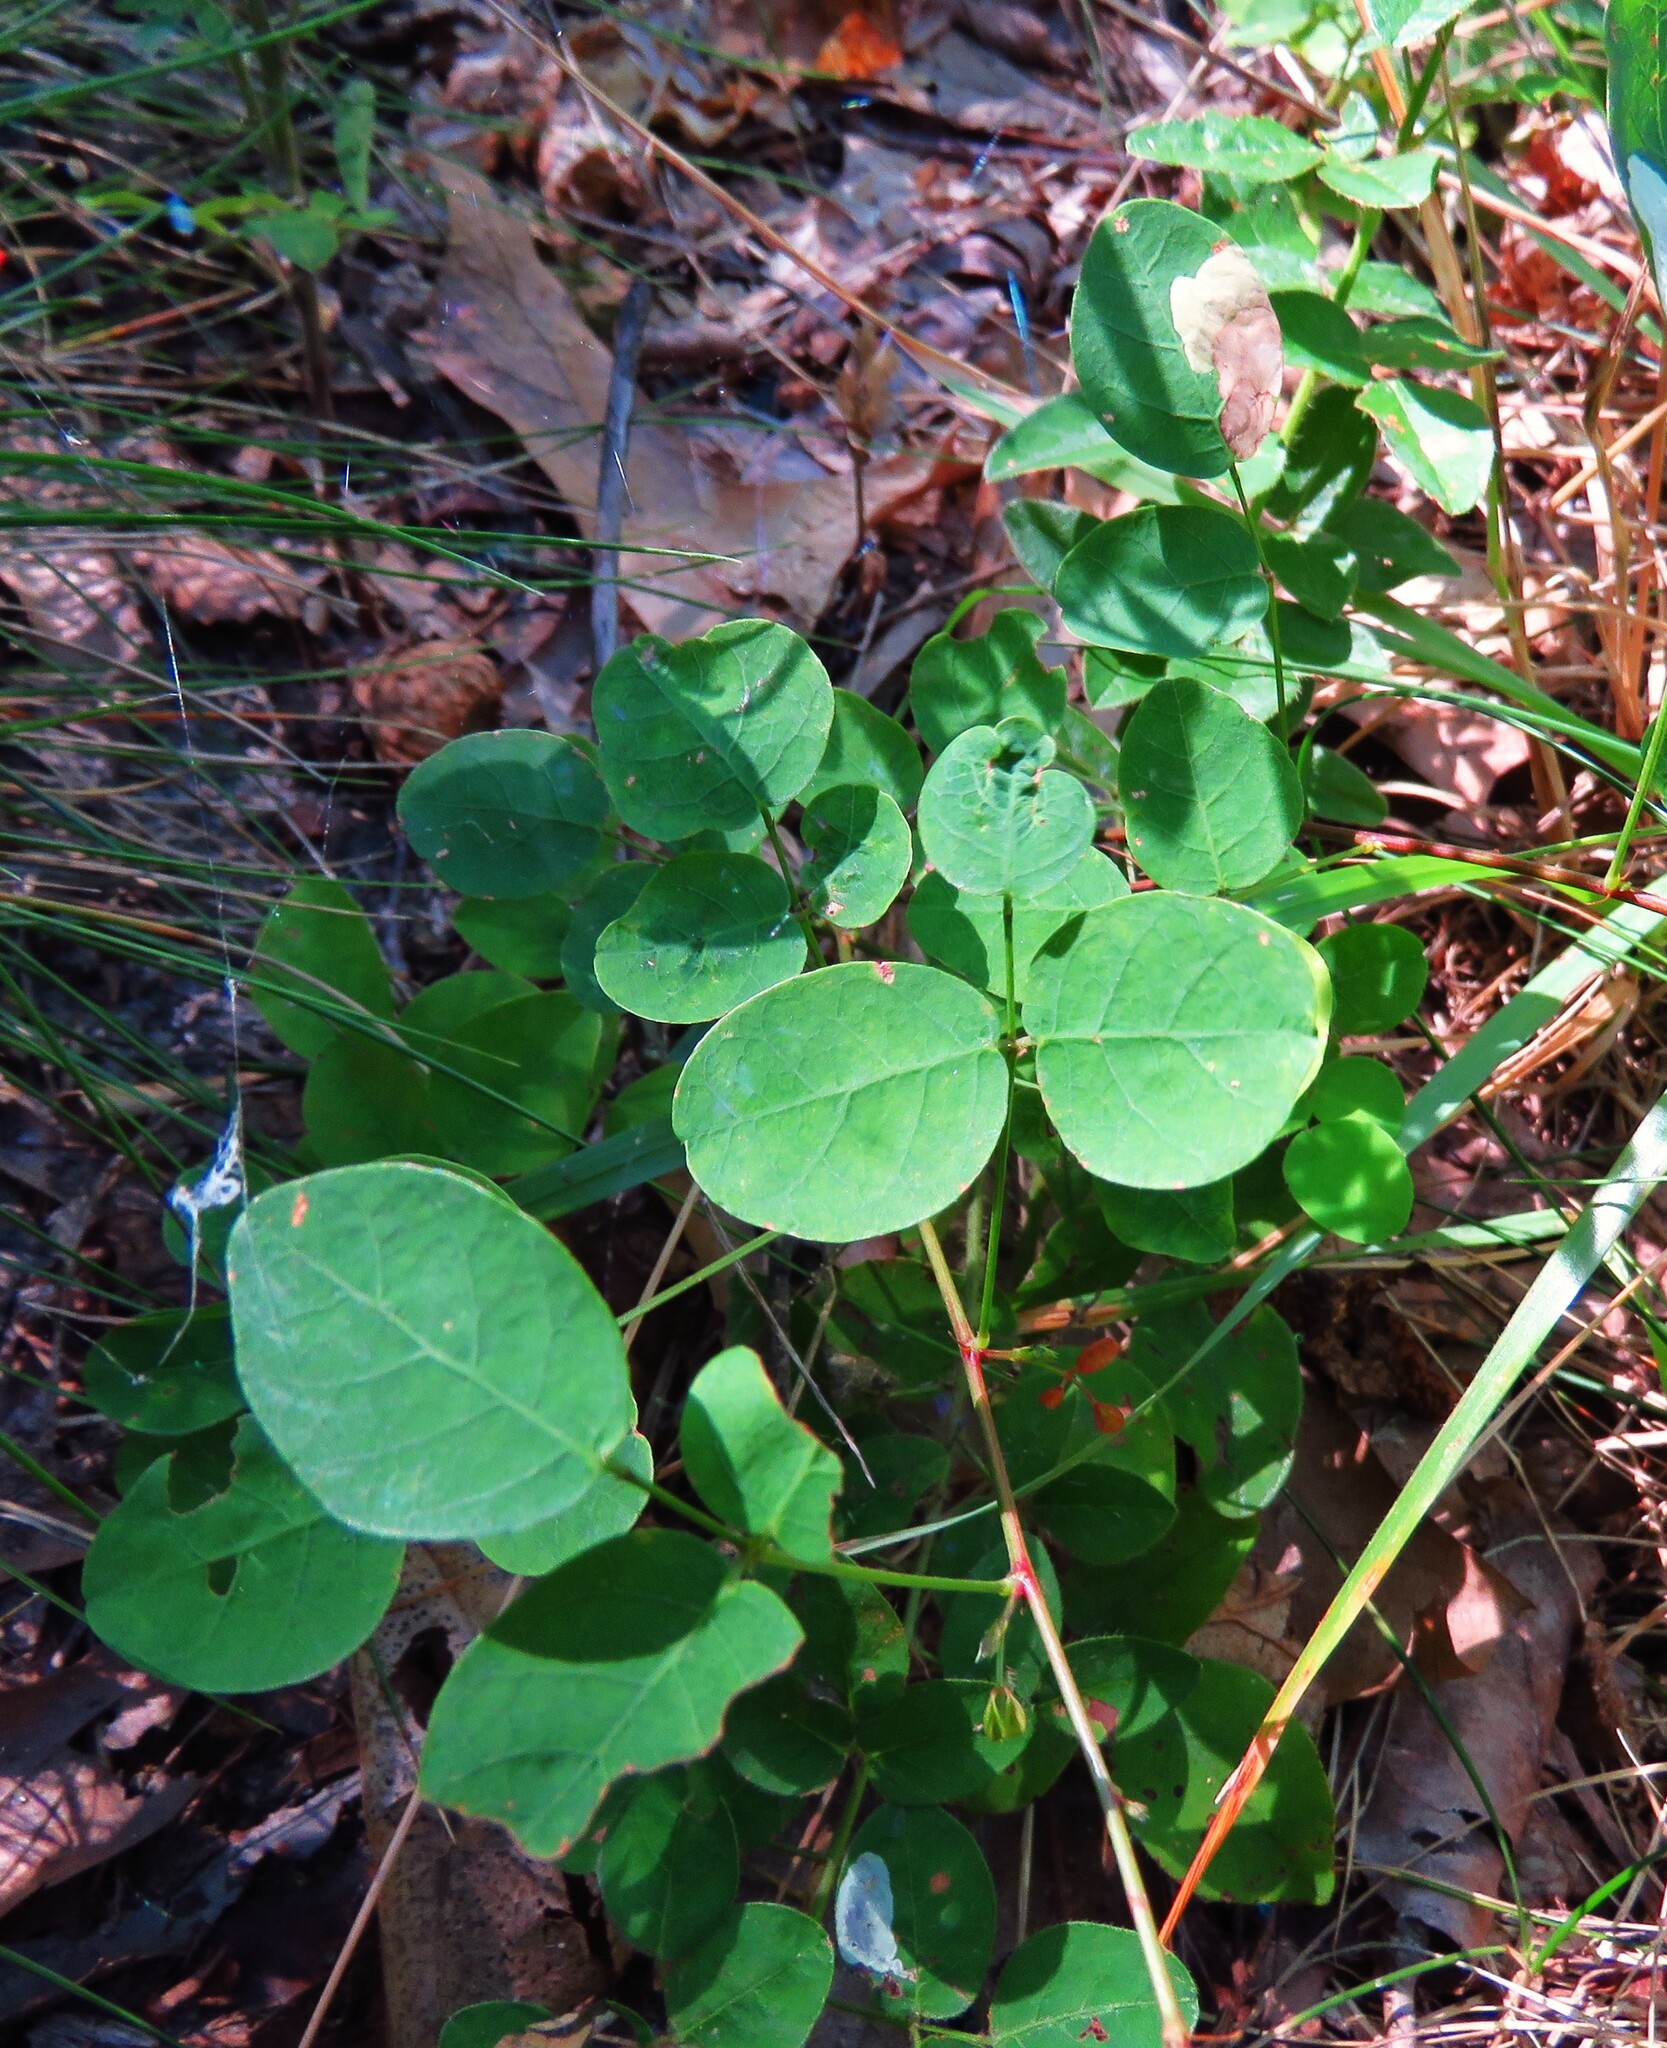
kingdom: Plantae
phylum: Tracheophyta
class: Magnoliopsida
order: Fabales
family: Fabaceae
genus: Desmodium
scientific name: Desmodium marilandicum
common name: Maryland tick-trefoil
